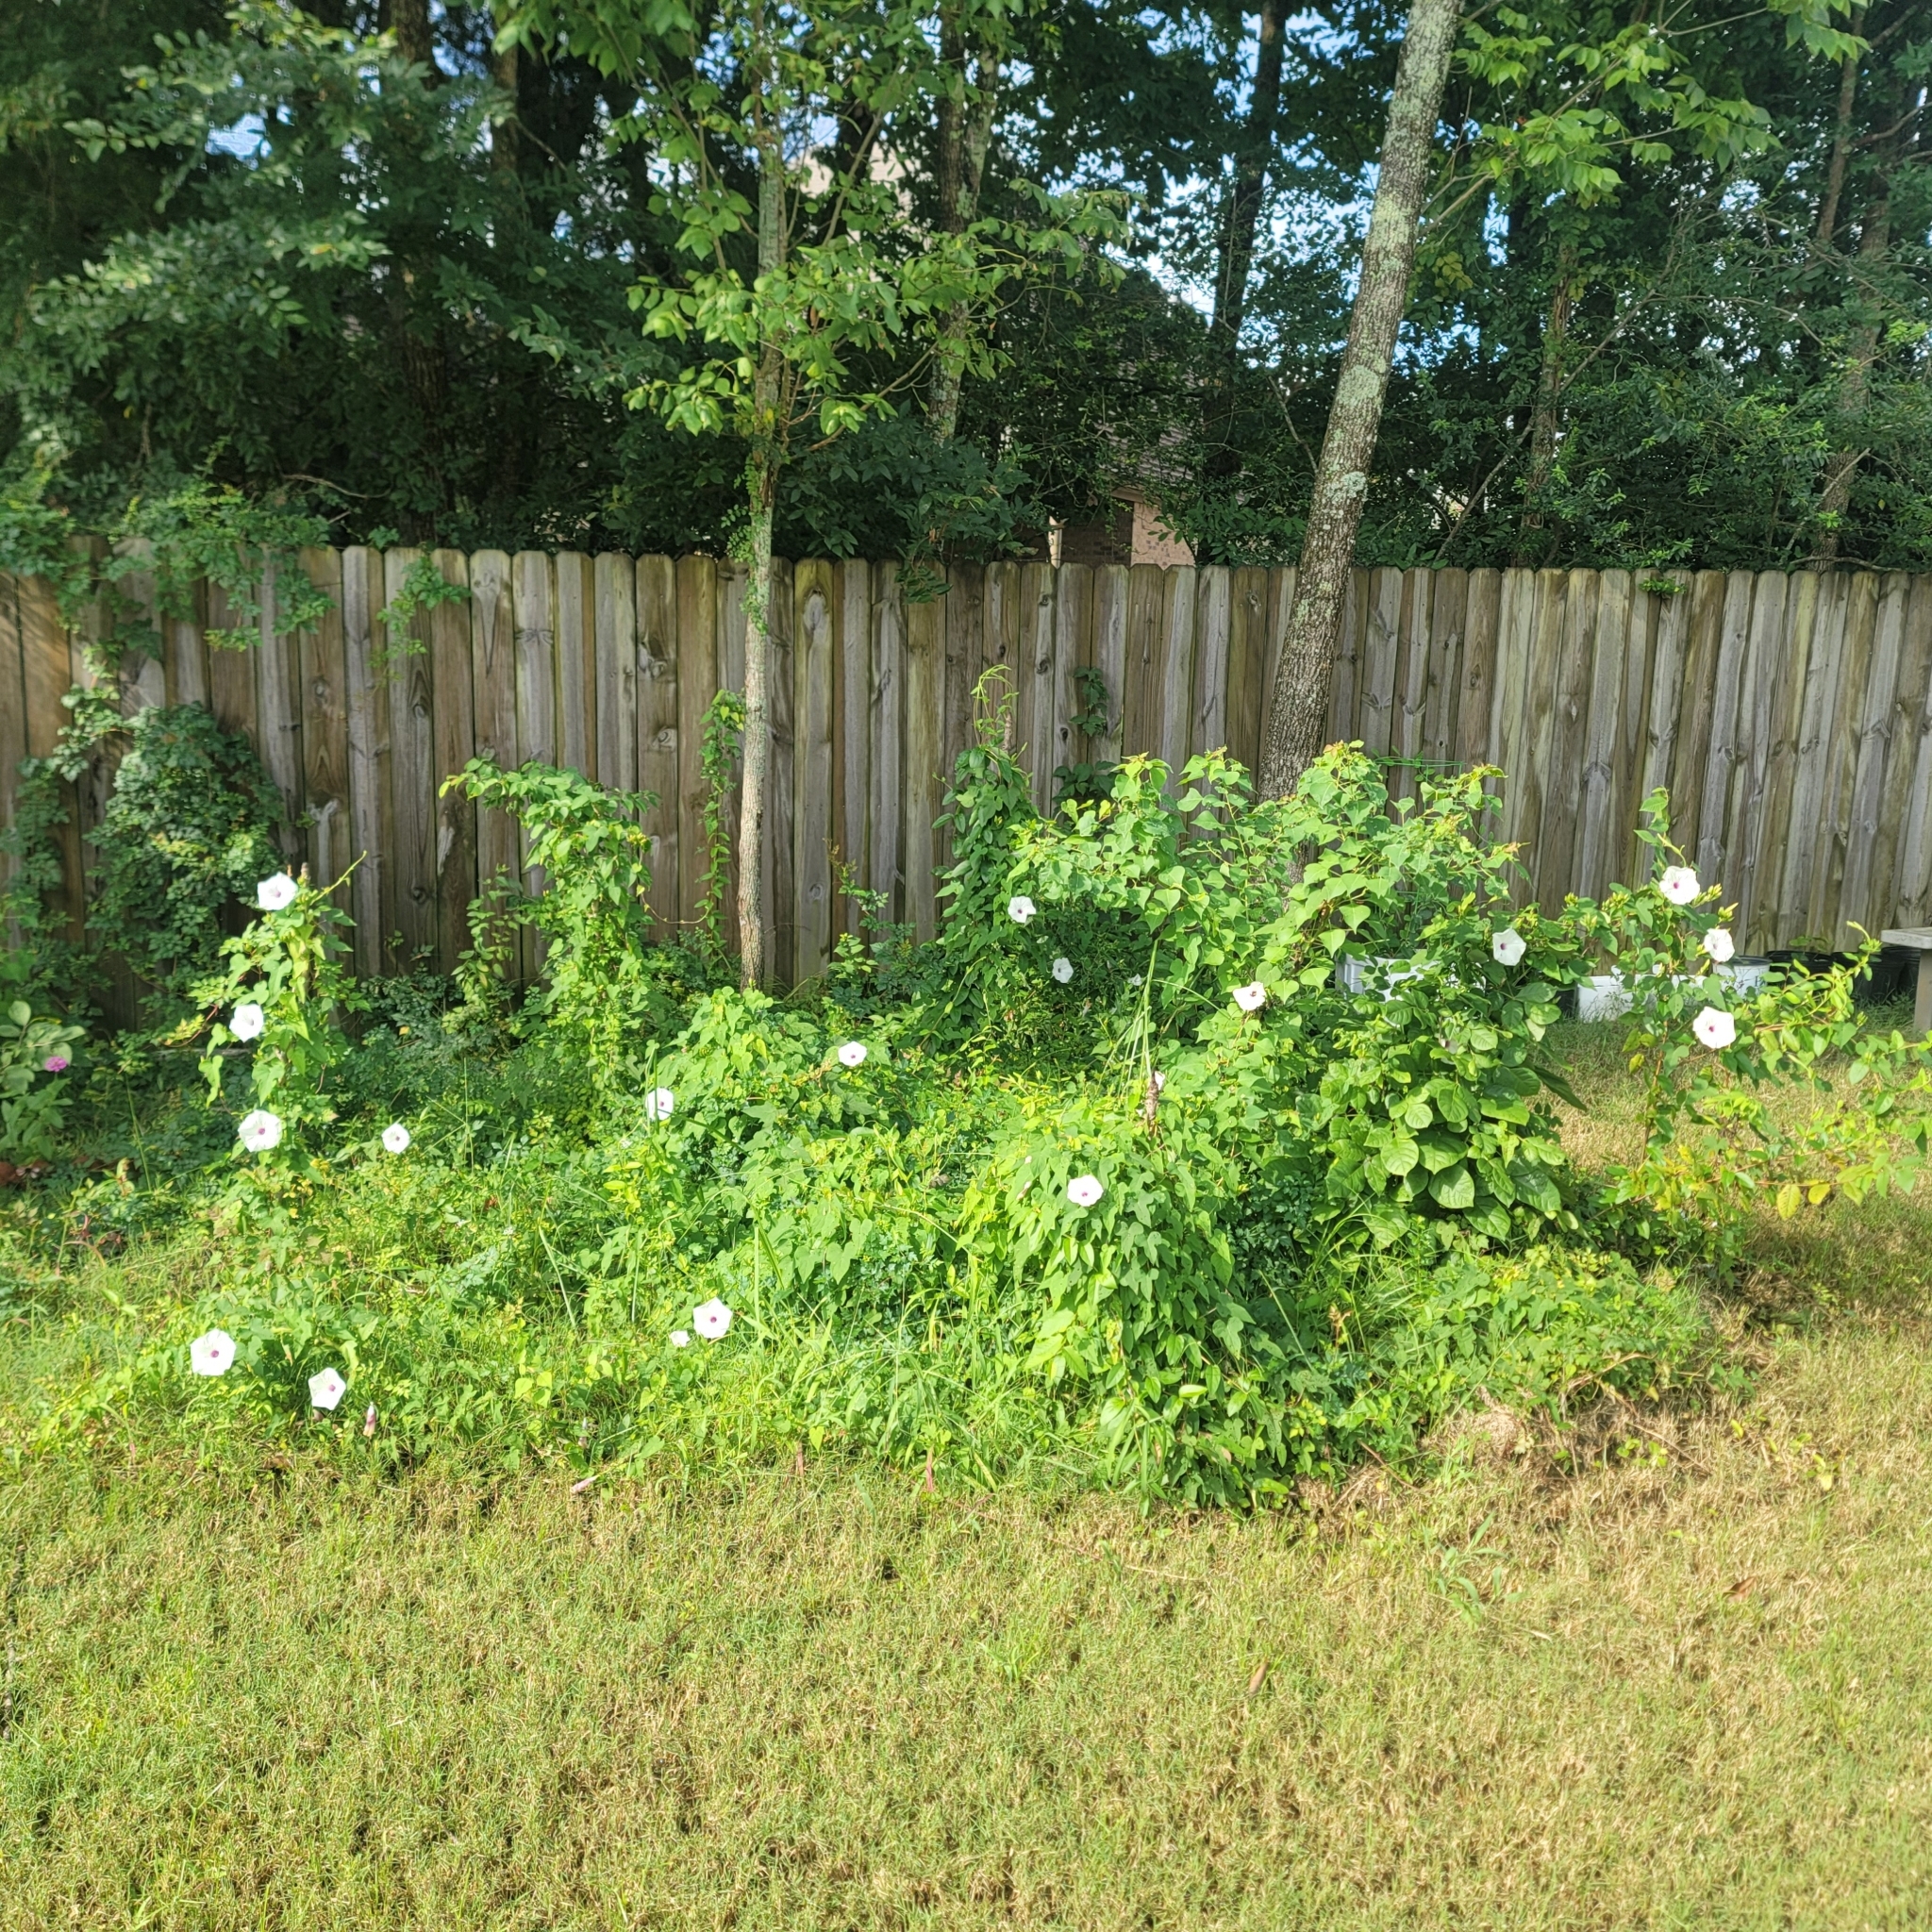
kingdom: Plantae
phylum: Tracheophyta
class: Magnoliopsida
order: Solanales
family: Convolvulaceae
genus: Ipomoea
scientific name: Ipomoea pandurata
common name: Man-of-the-earth
